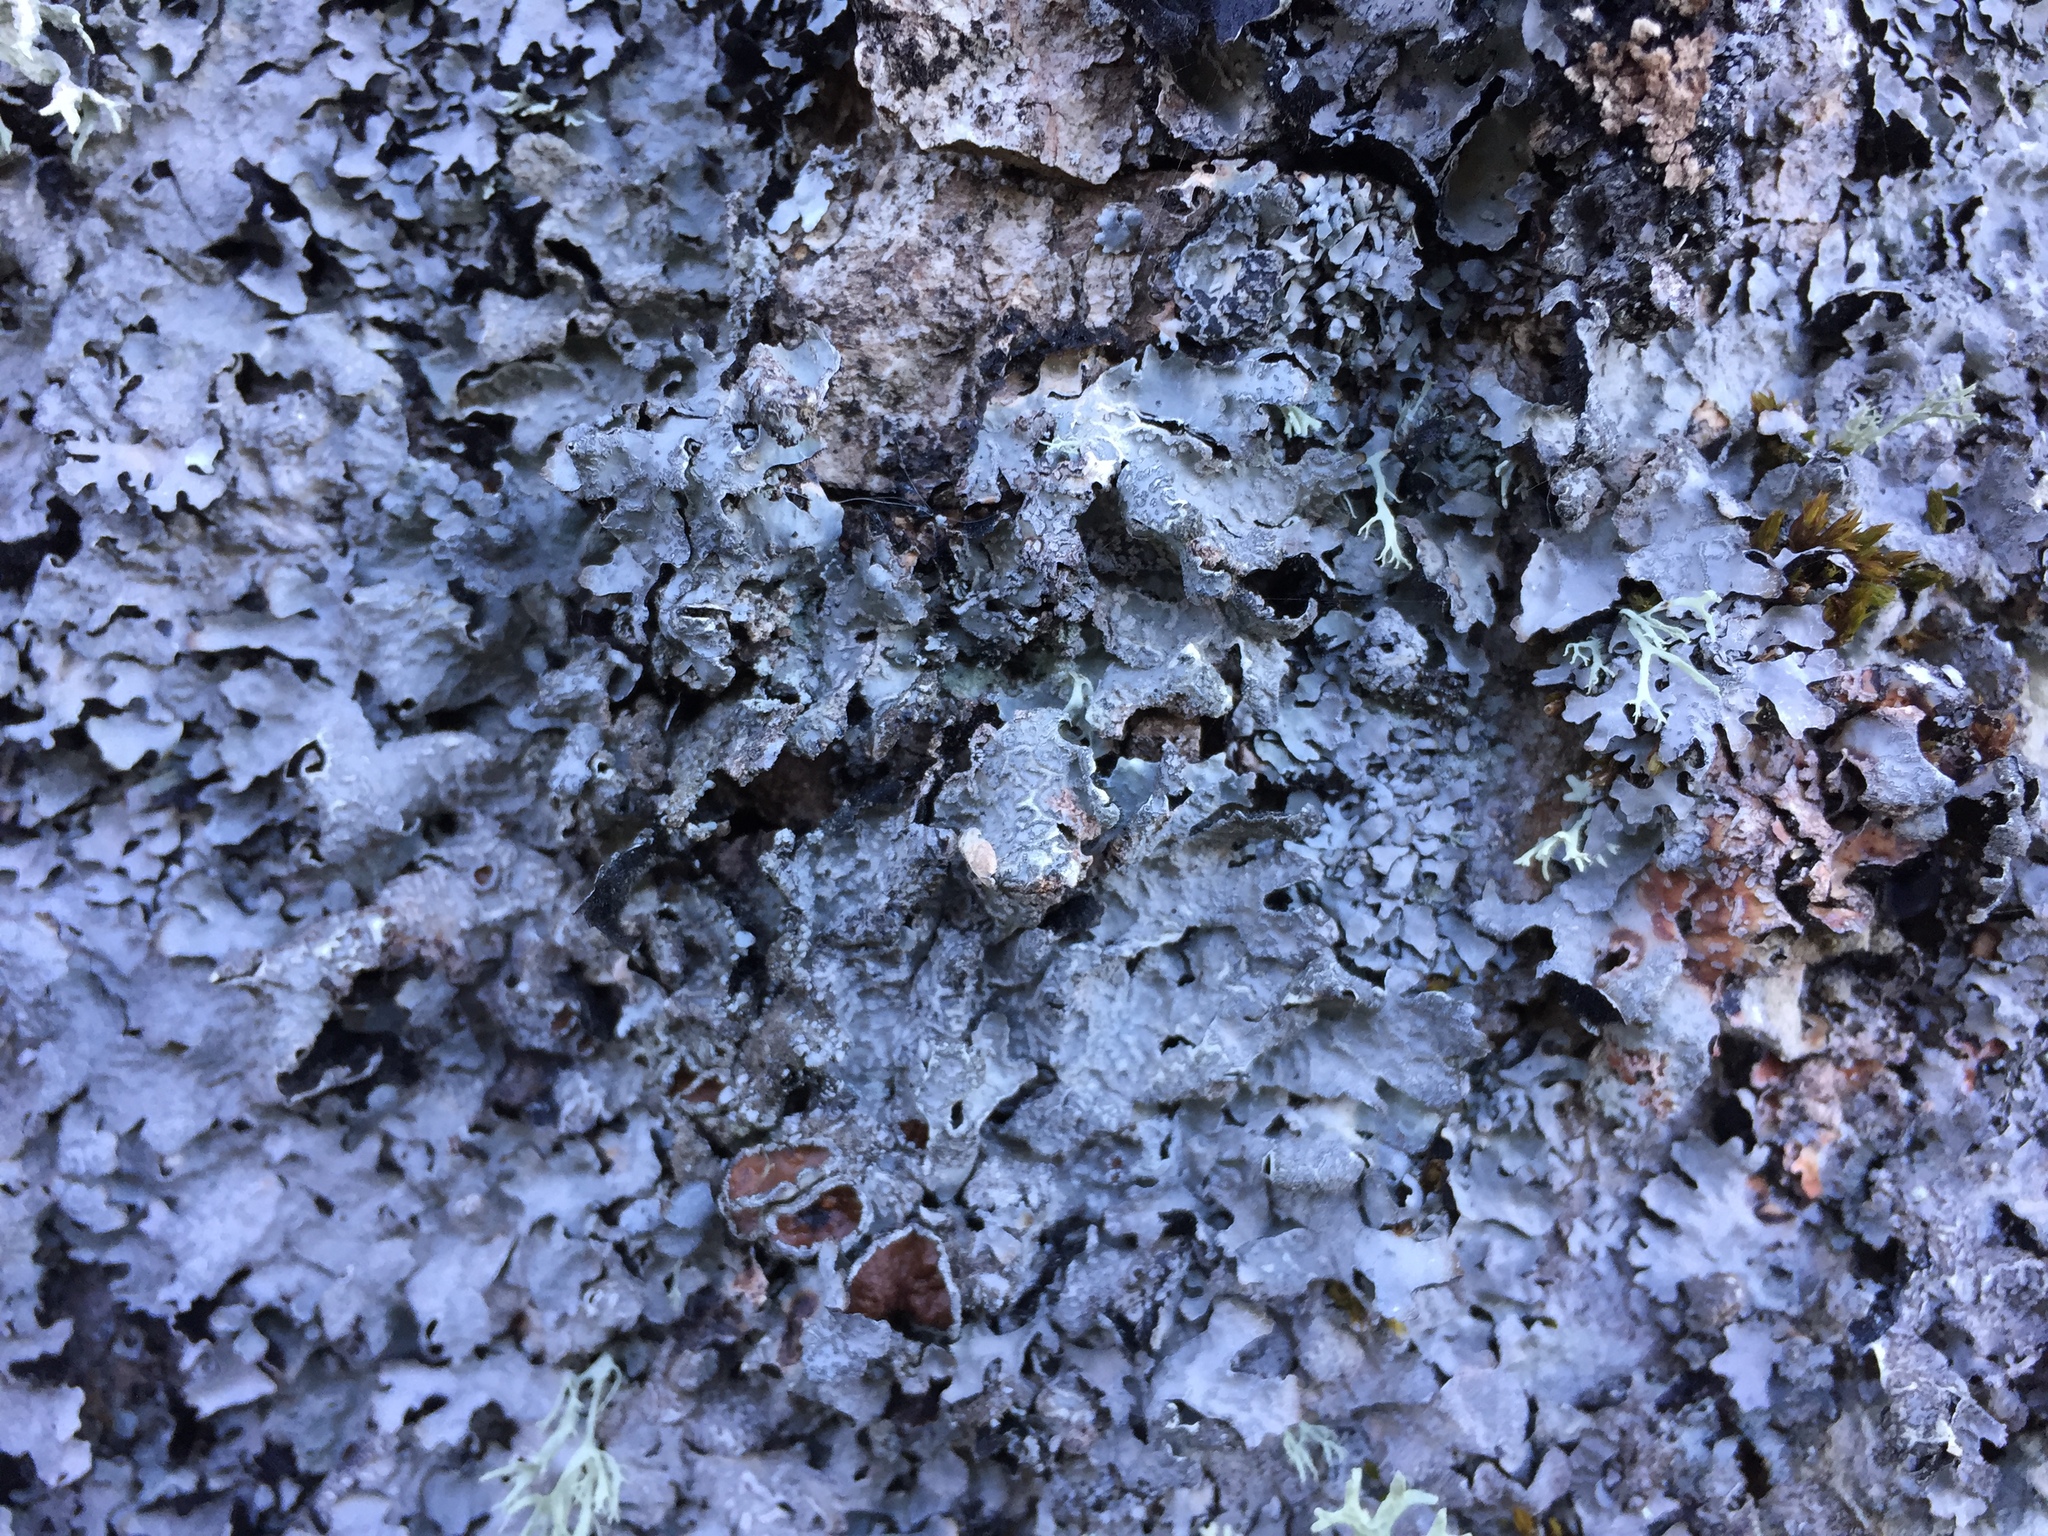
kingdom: Fungi
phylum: Ascomycota
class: Lecanoromycetes
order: Lecanorales
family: Parmeliaceae
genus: Parmelia
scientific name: Parmelia sulcata
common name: Netted shield lichen
